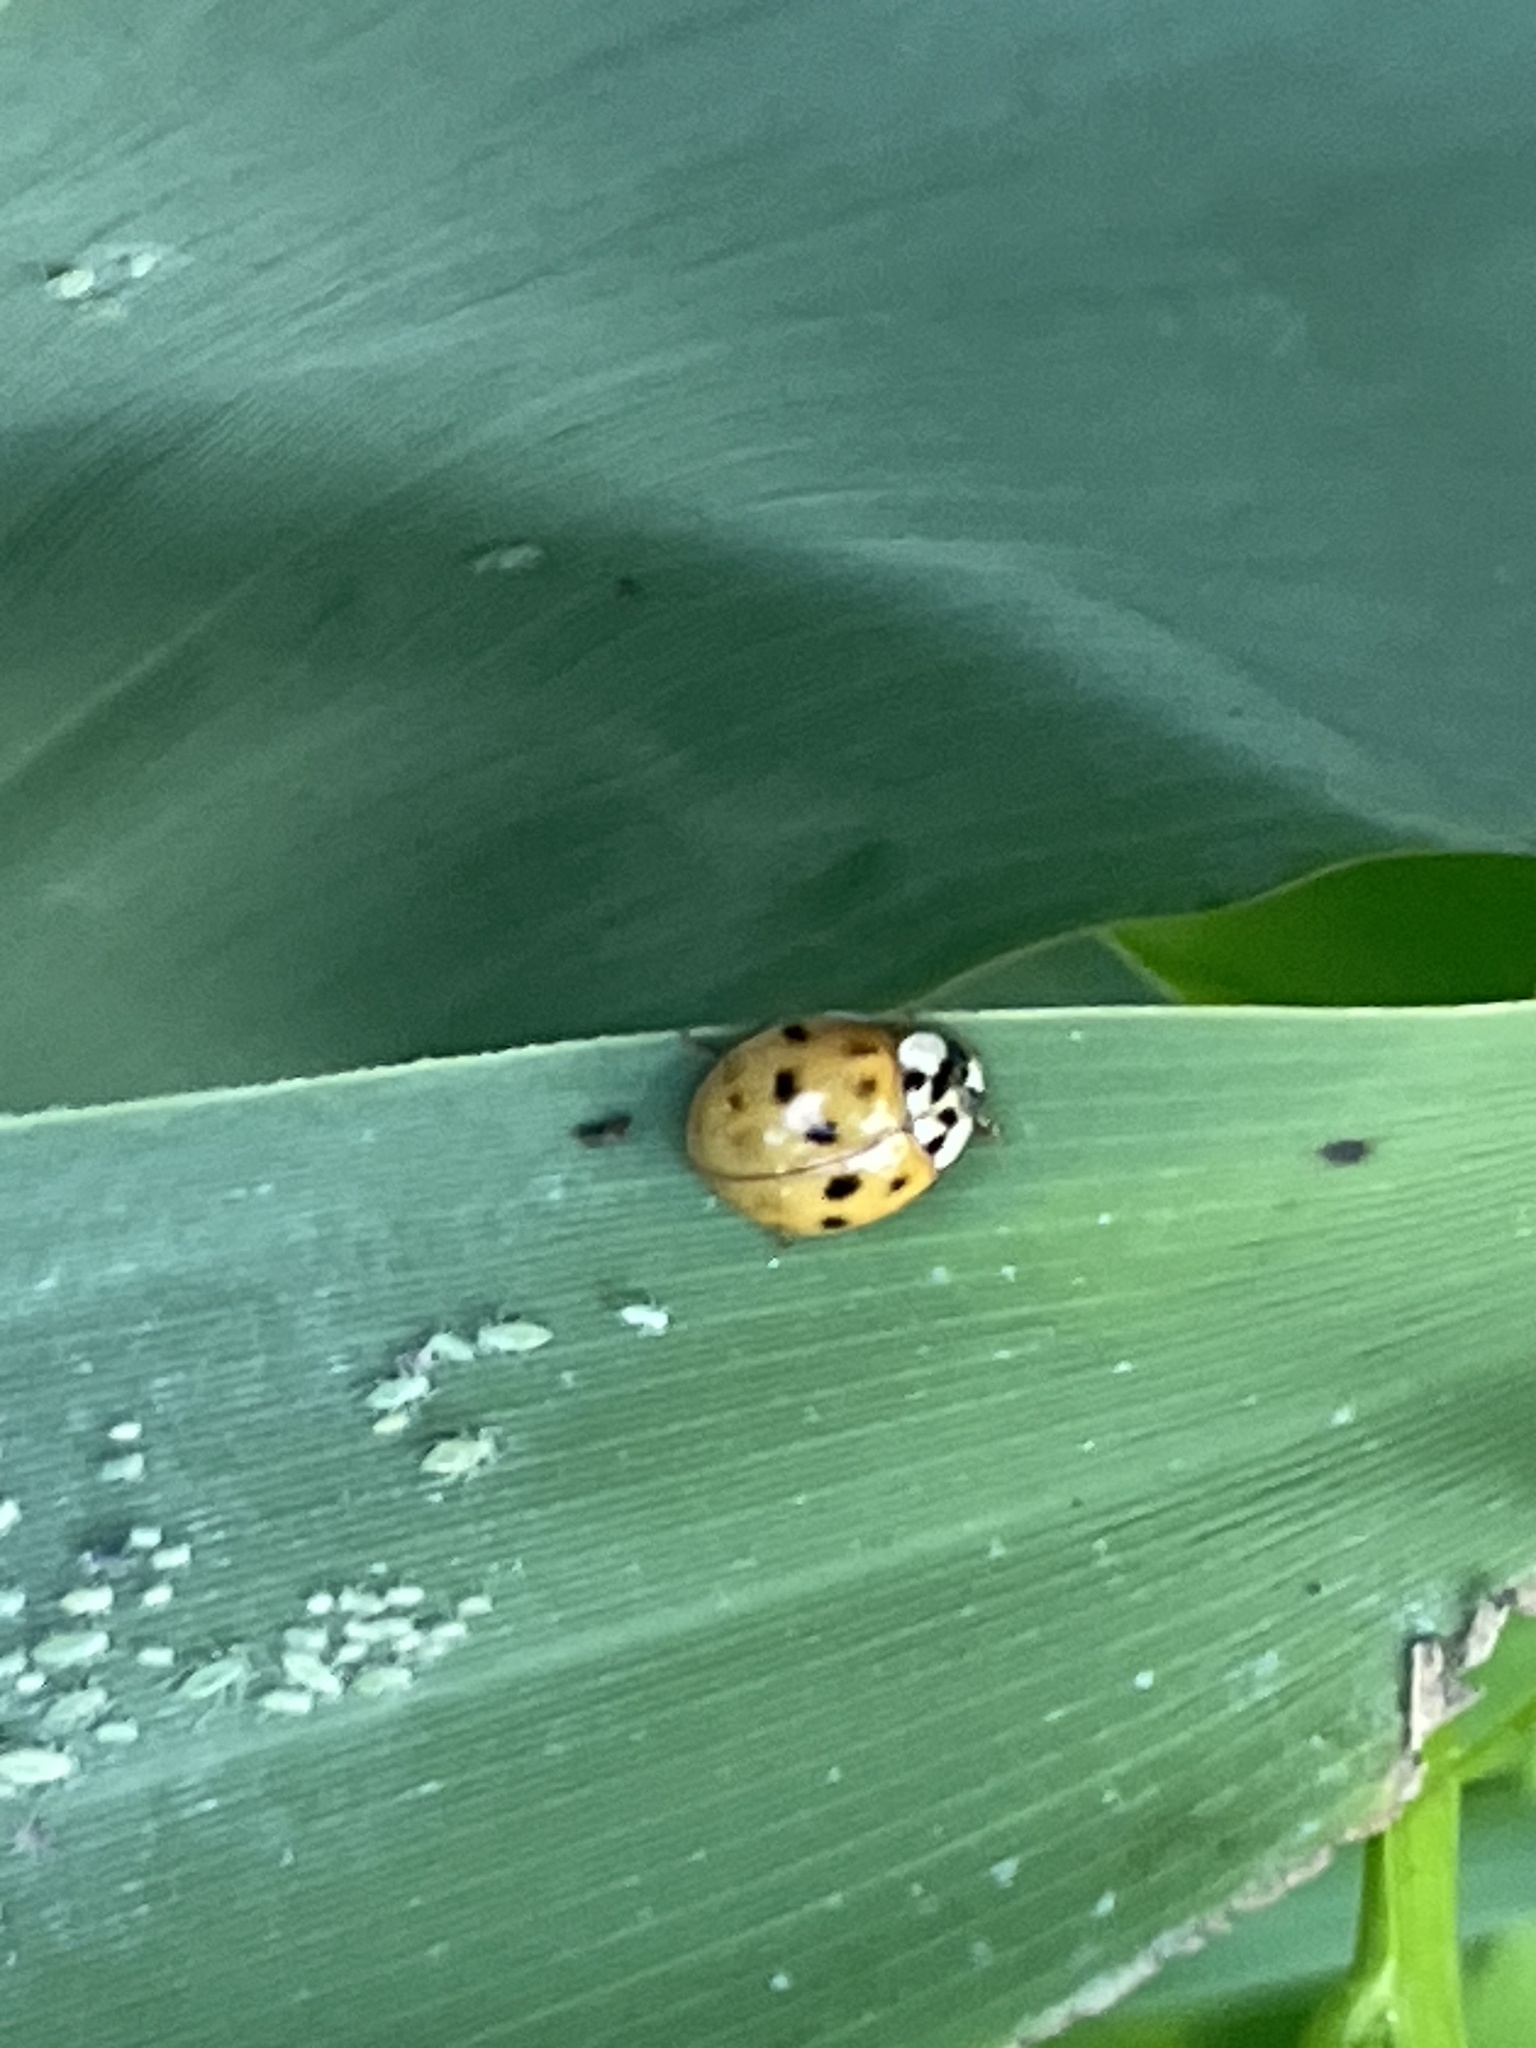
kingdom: Animalia
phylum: Arthropoda
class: Insecta
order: Coleoptera
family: Coccinellidae
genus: Harmonia
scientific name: Harmonia axyridis
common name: Harlequin ladybird
